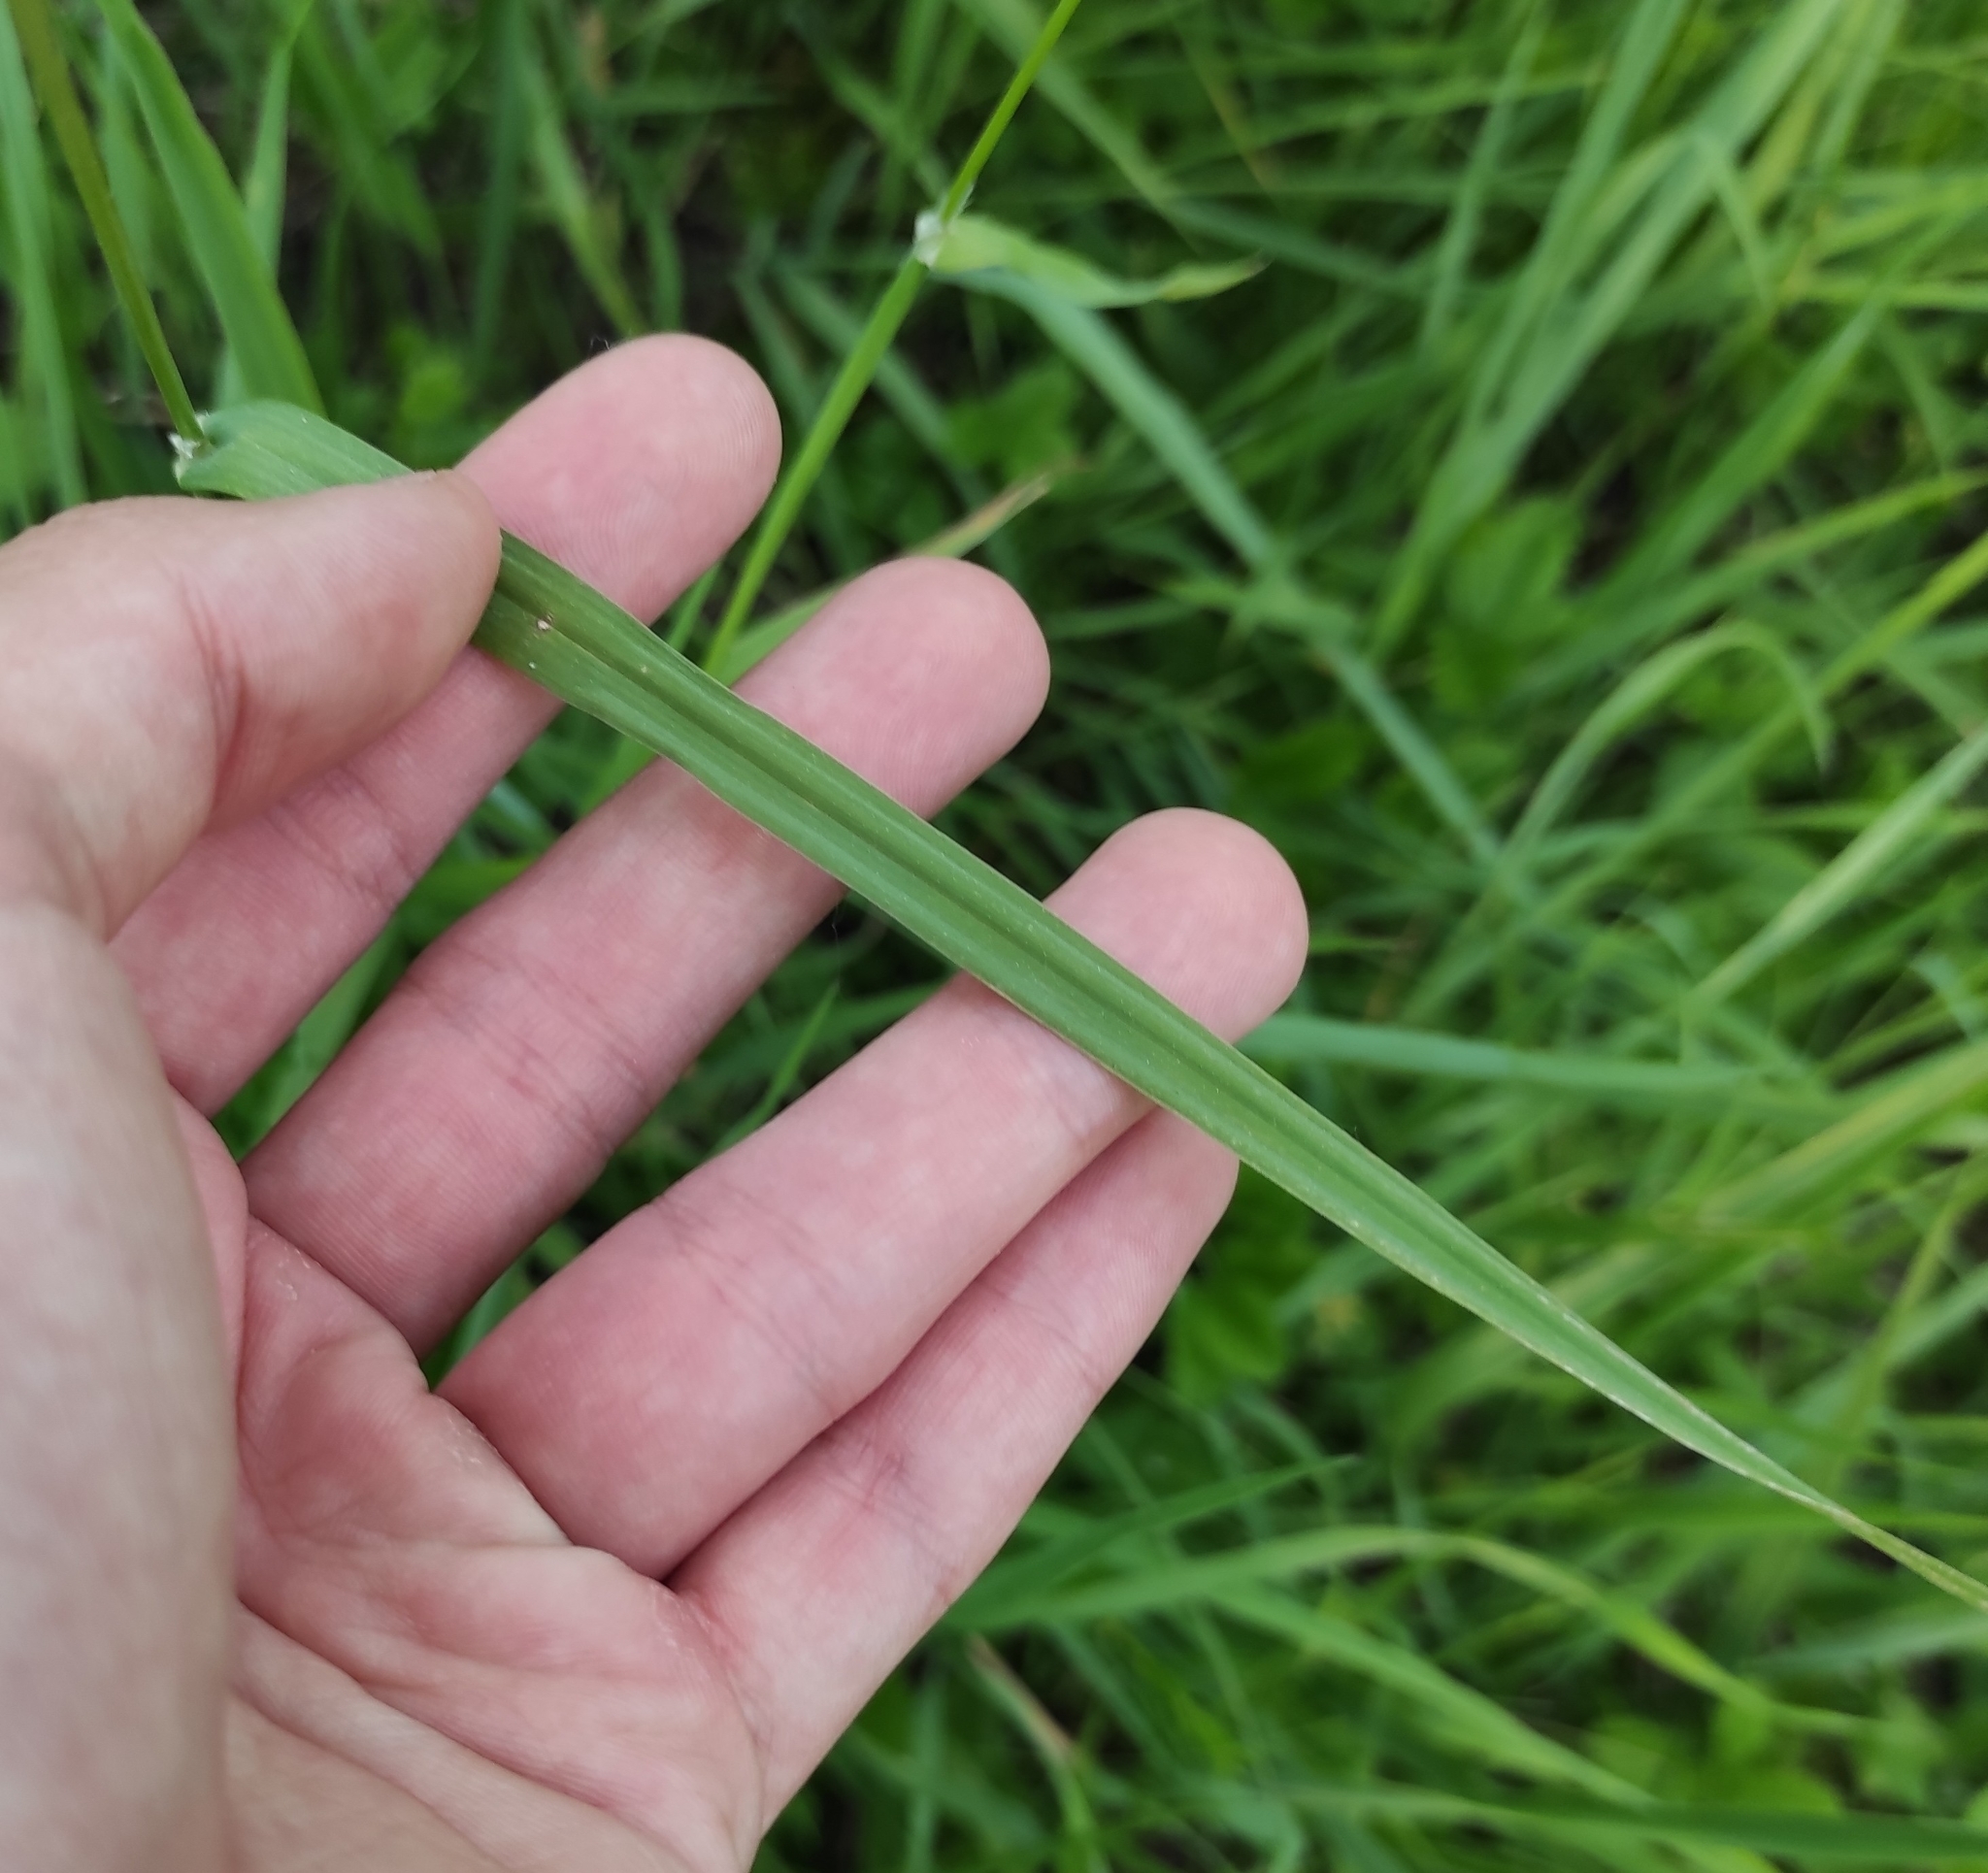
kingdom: Plantae
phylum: Tracheophyta
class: Liliopsida
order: Poales
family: Poaceae
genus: Dactylis
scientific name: Dactylis glomerata
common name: Orchardgrass
